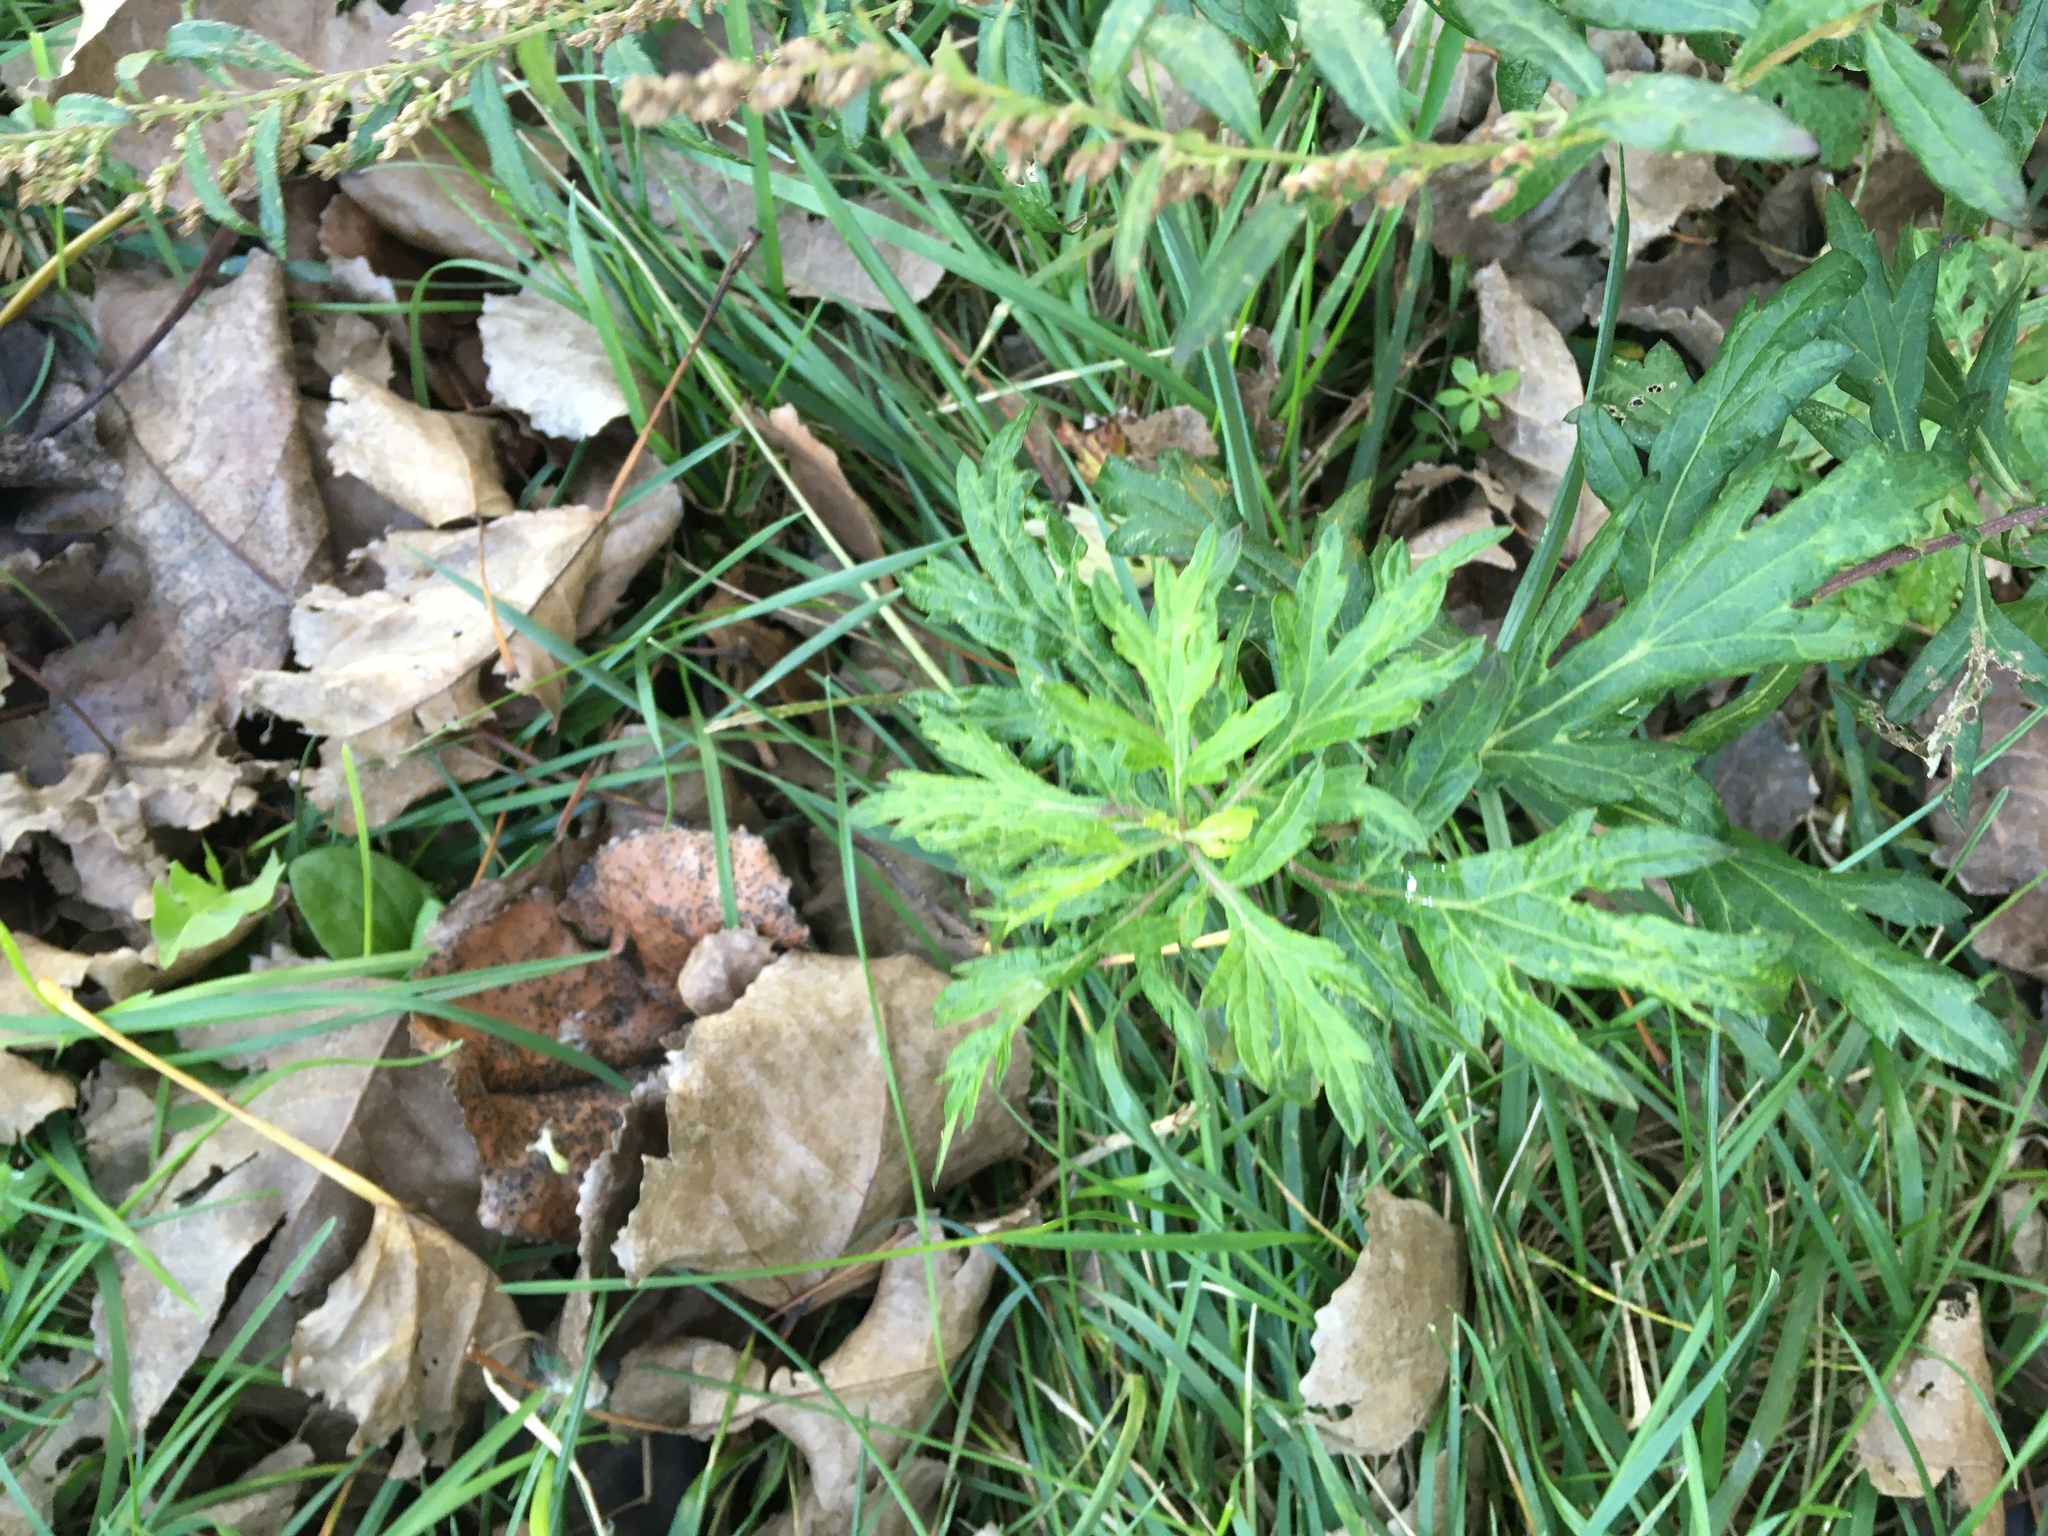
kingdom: Plantae
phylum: Tracheophyta
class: Magnoliopsida
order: Asterales
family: Asteraceae
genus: Artemisia
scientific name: Artemisia vulgaris
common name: Mugwort
